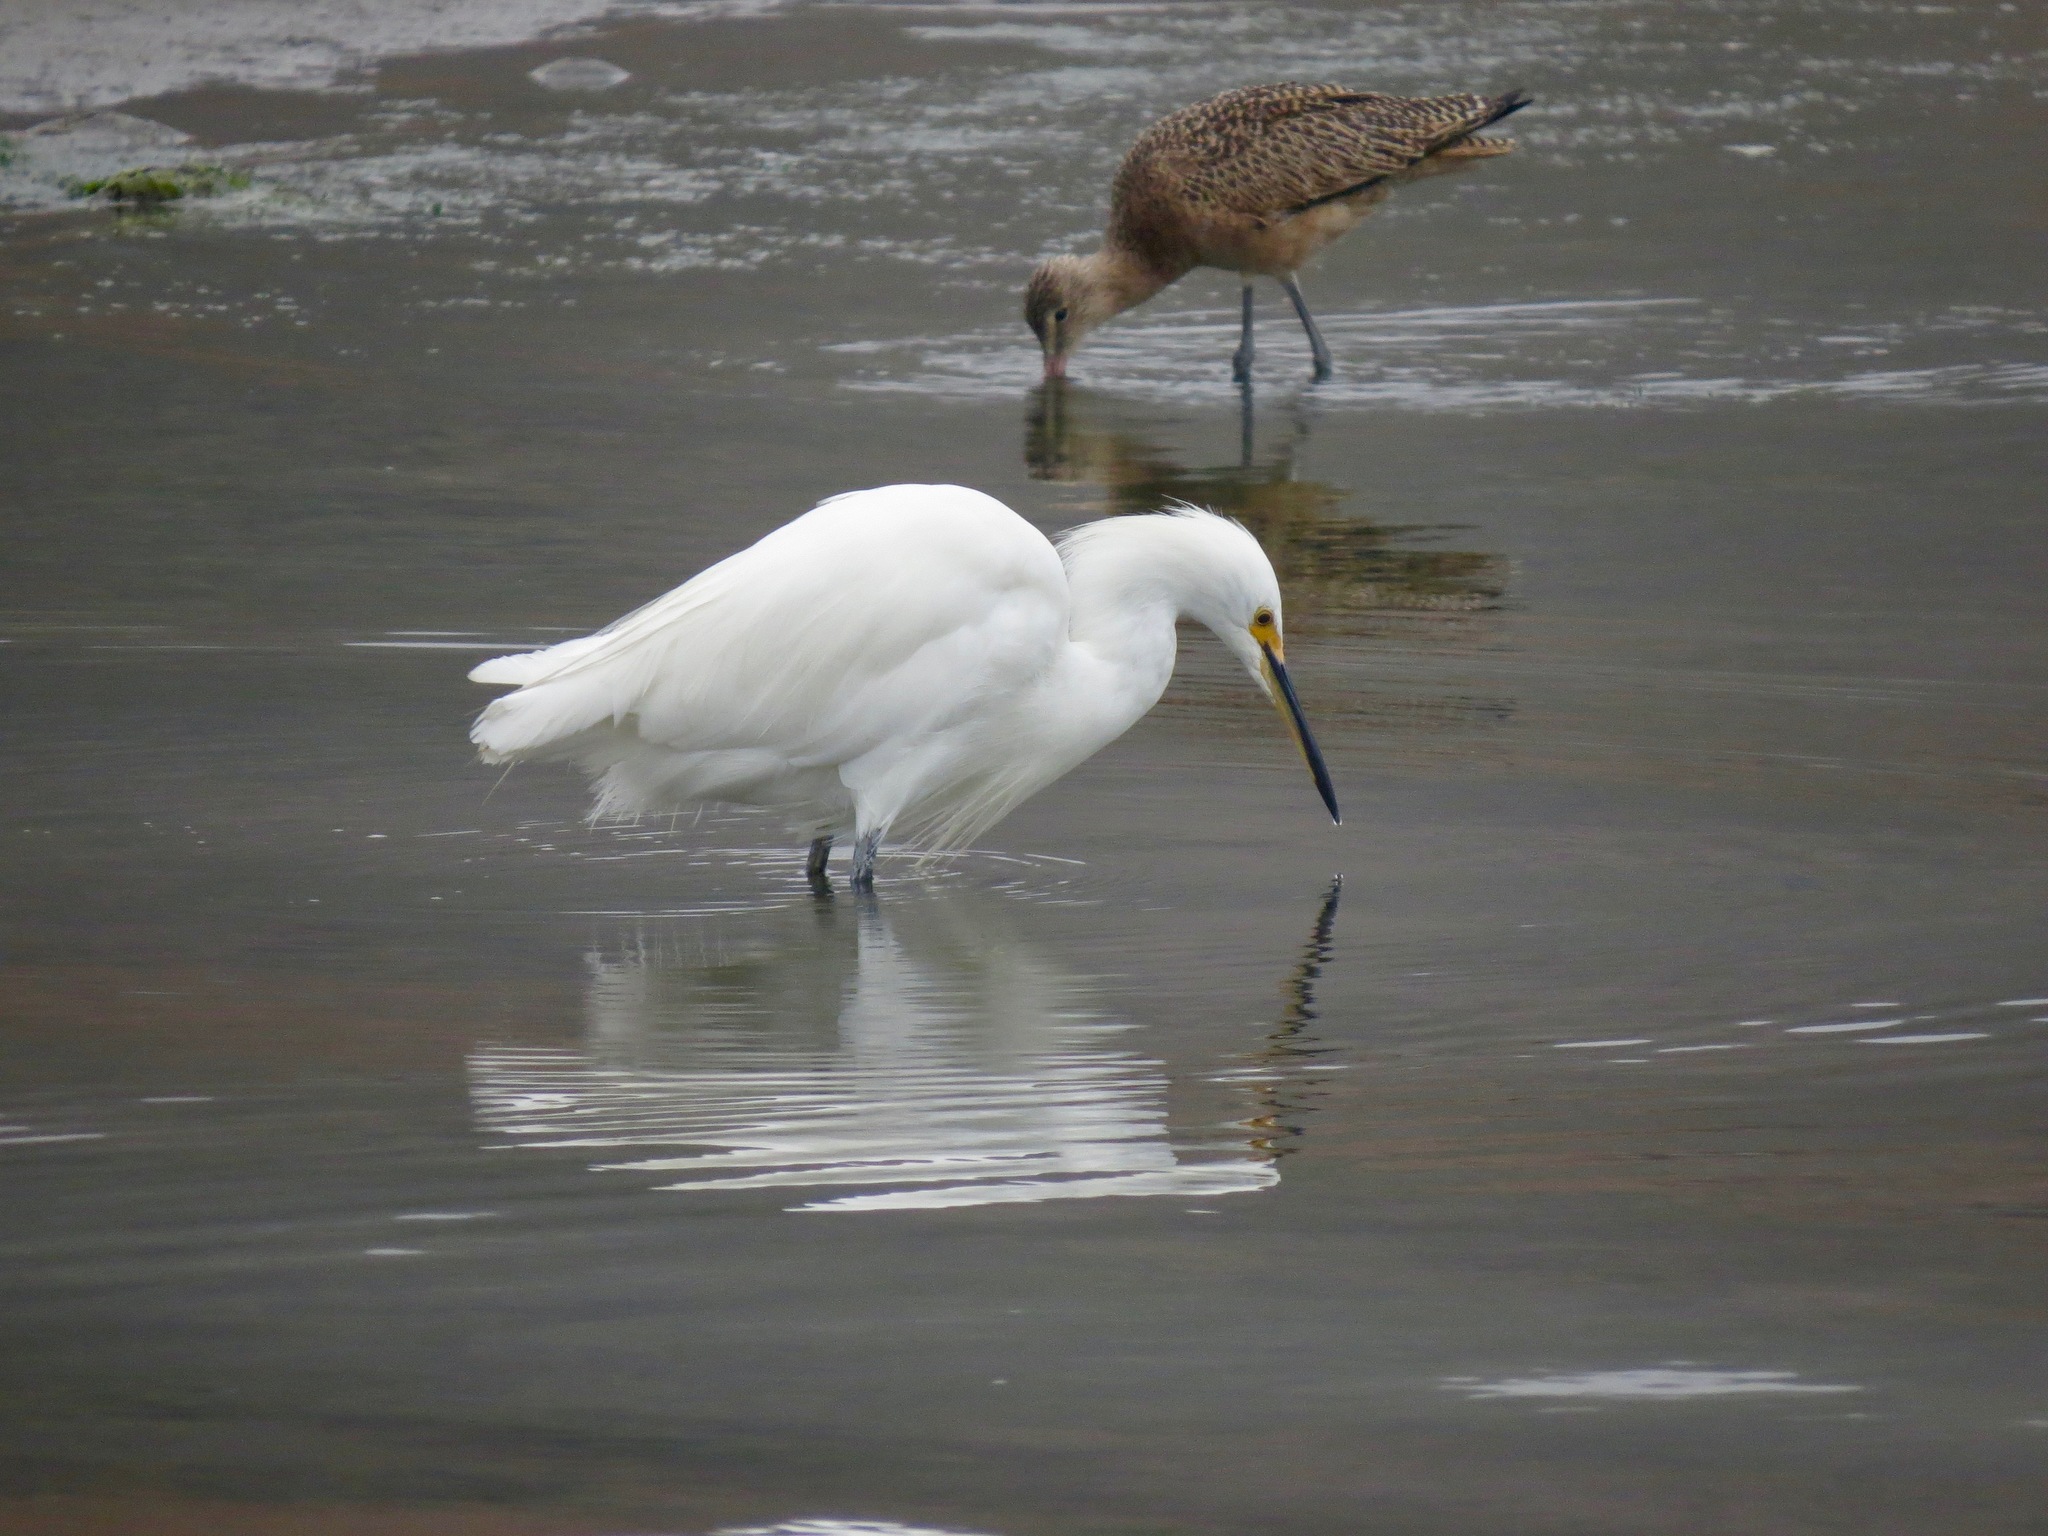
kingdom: Animalia
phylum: Chordata
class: Aves
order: Pelecaniformes
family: Ardeidae
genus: Egretta
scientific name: Egretta thula
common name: Snowy egret
